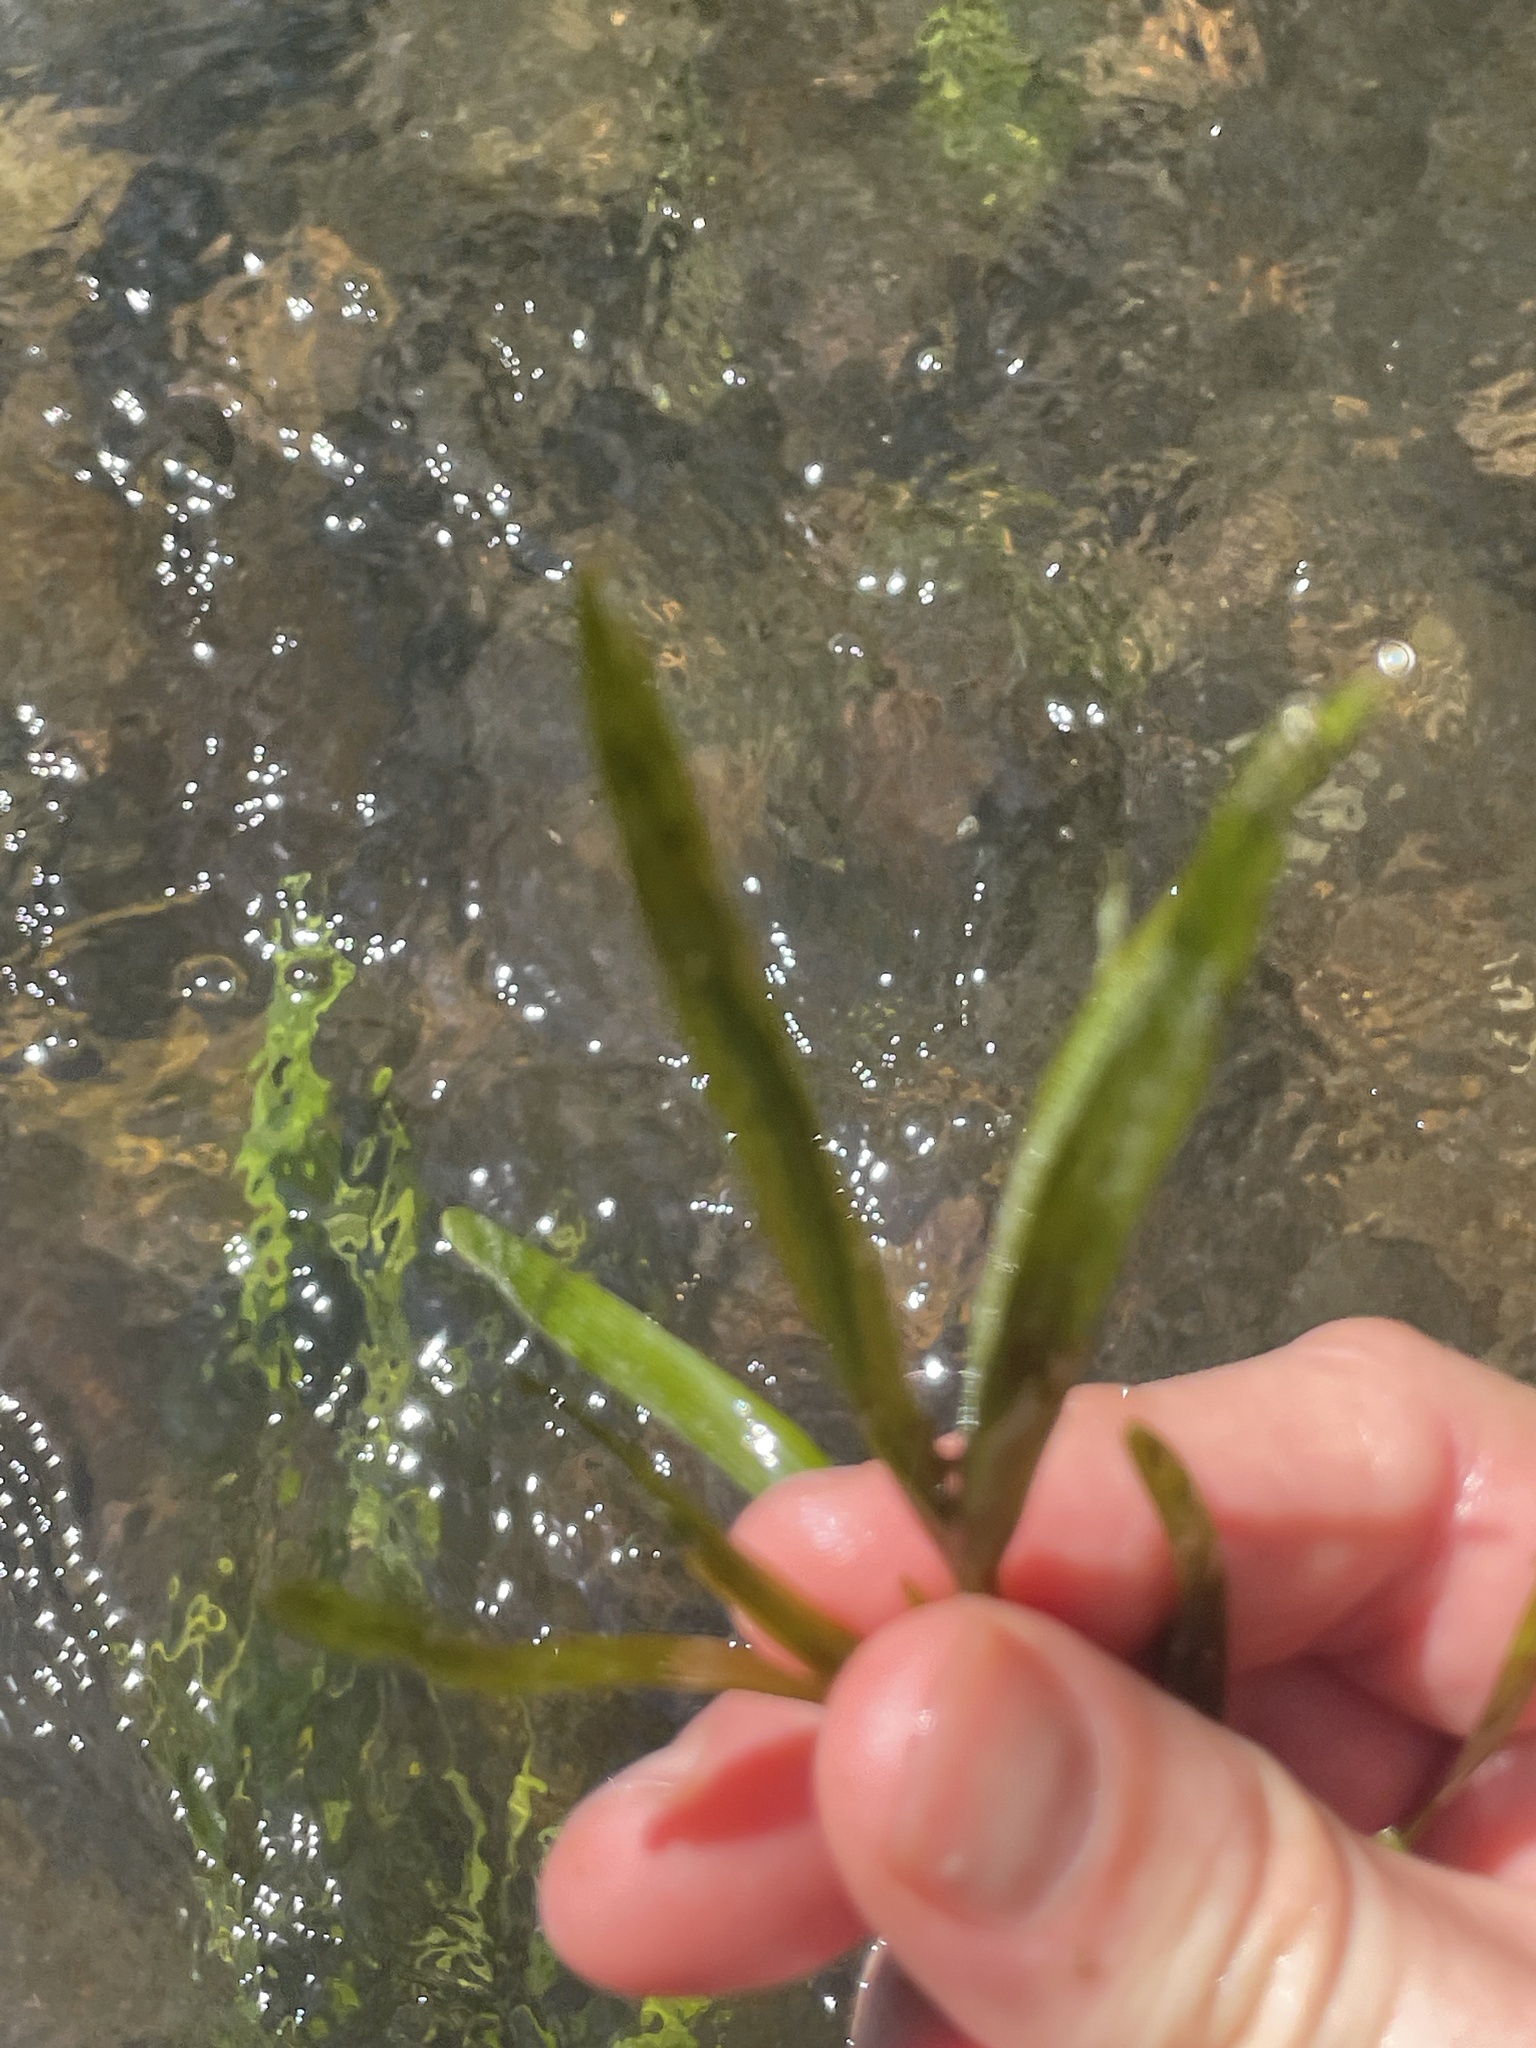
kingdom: Plantae
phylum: Tracheophyta
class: Liliopsida
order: Commelinales
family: Pontederiaceae
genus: Heteranthera
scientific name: Heteranthera dubia
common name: Grass-leaved mud plantain
